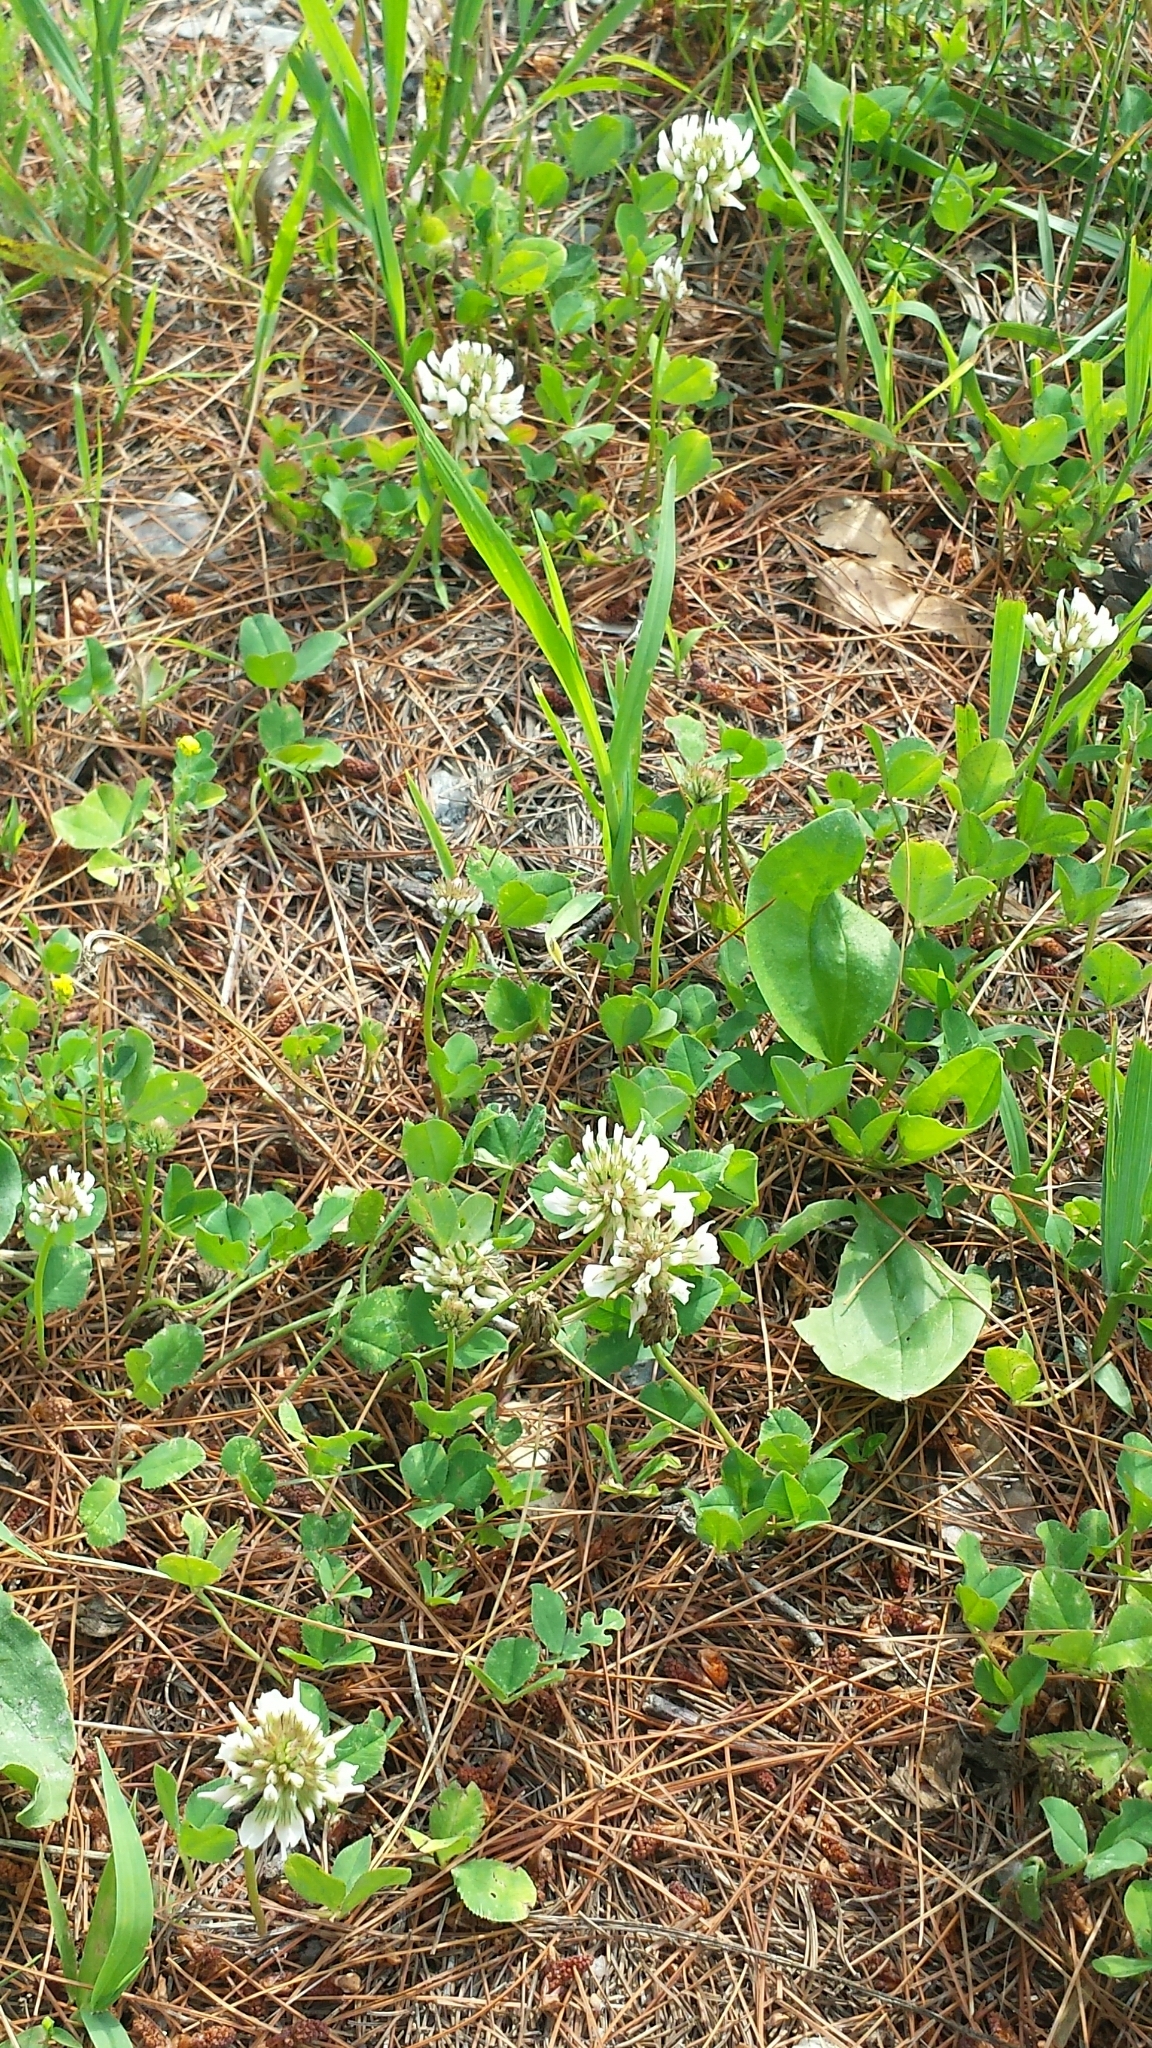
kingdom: Plantae
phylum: Tracheophyta
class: Magnoliopsida
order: Fabales
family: Fabaceae
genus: Trifolium
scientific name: Trifolium repens
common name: White clover
